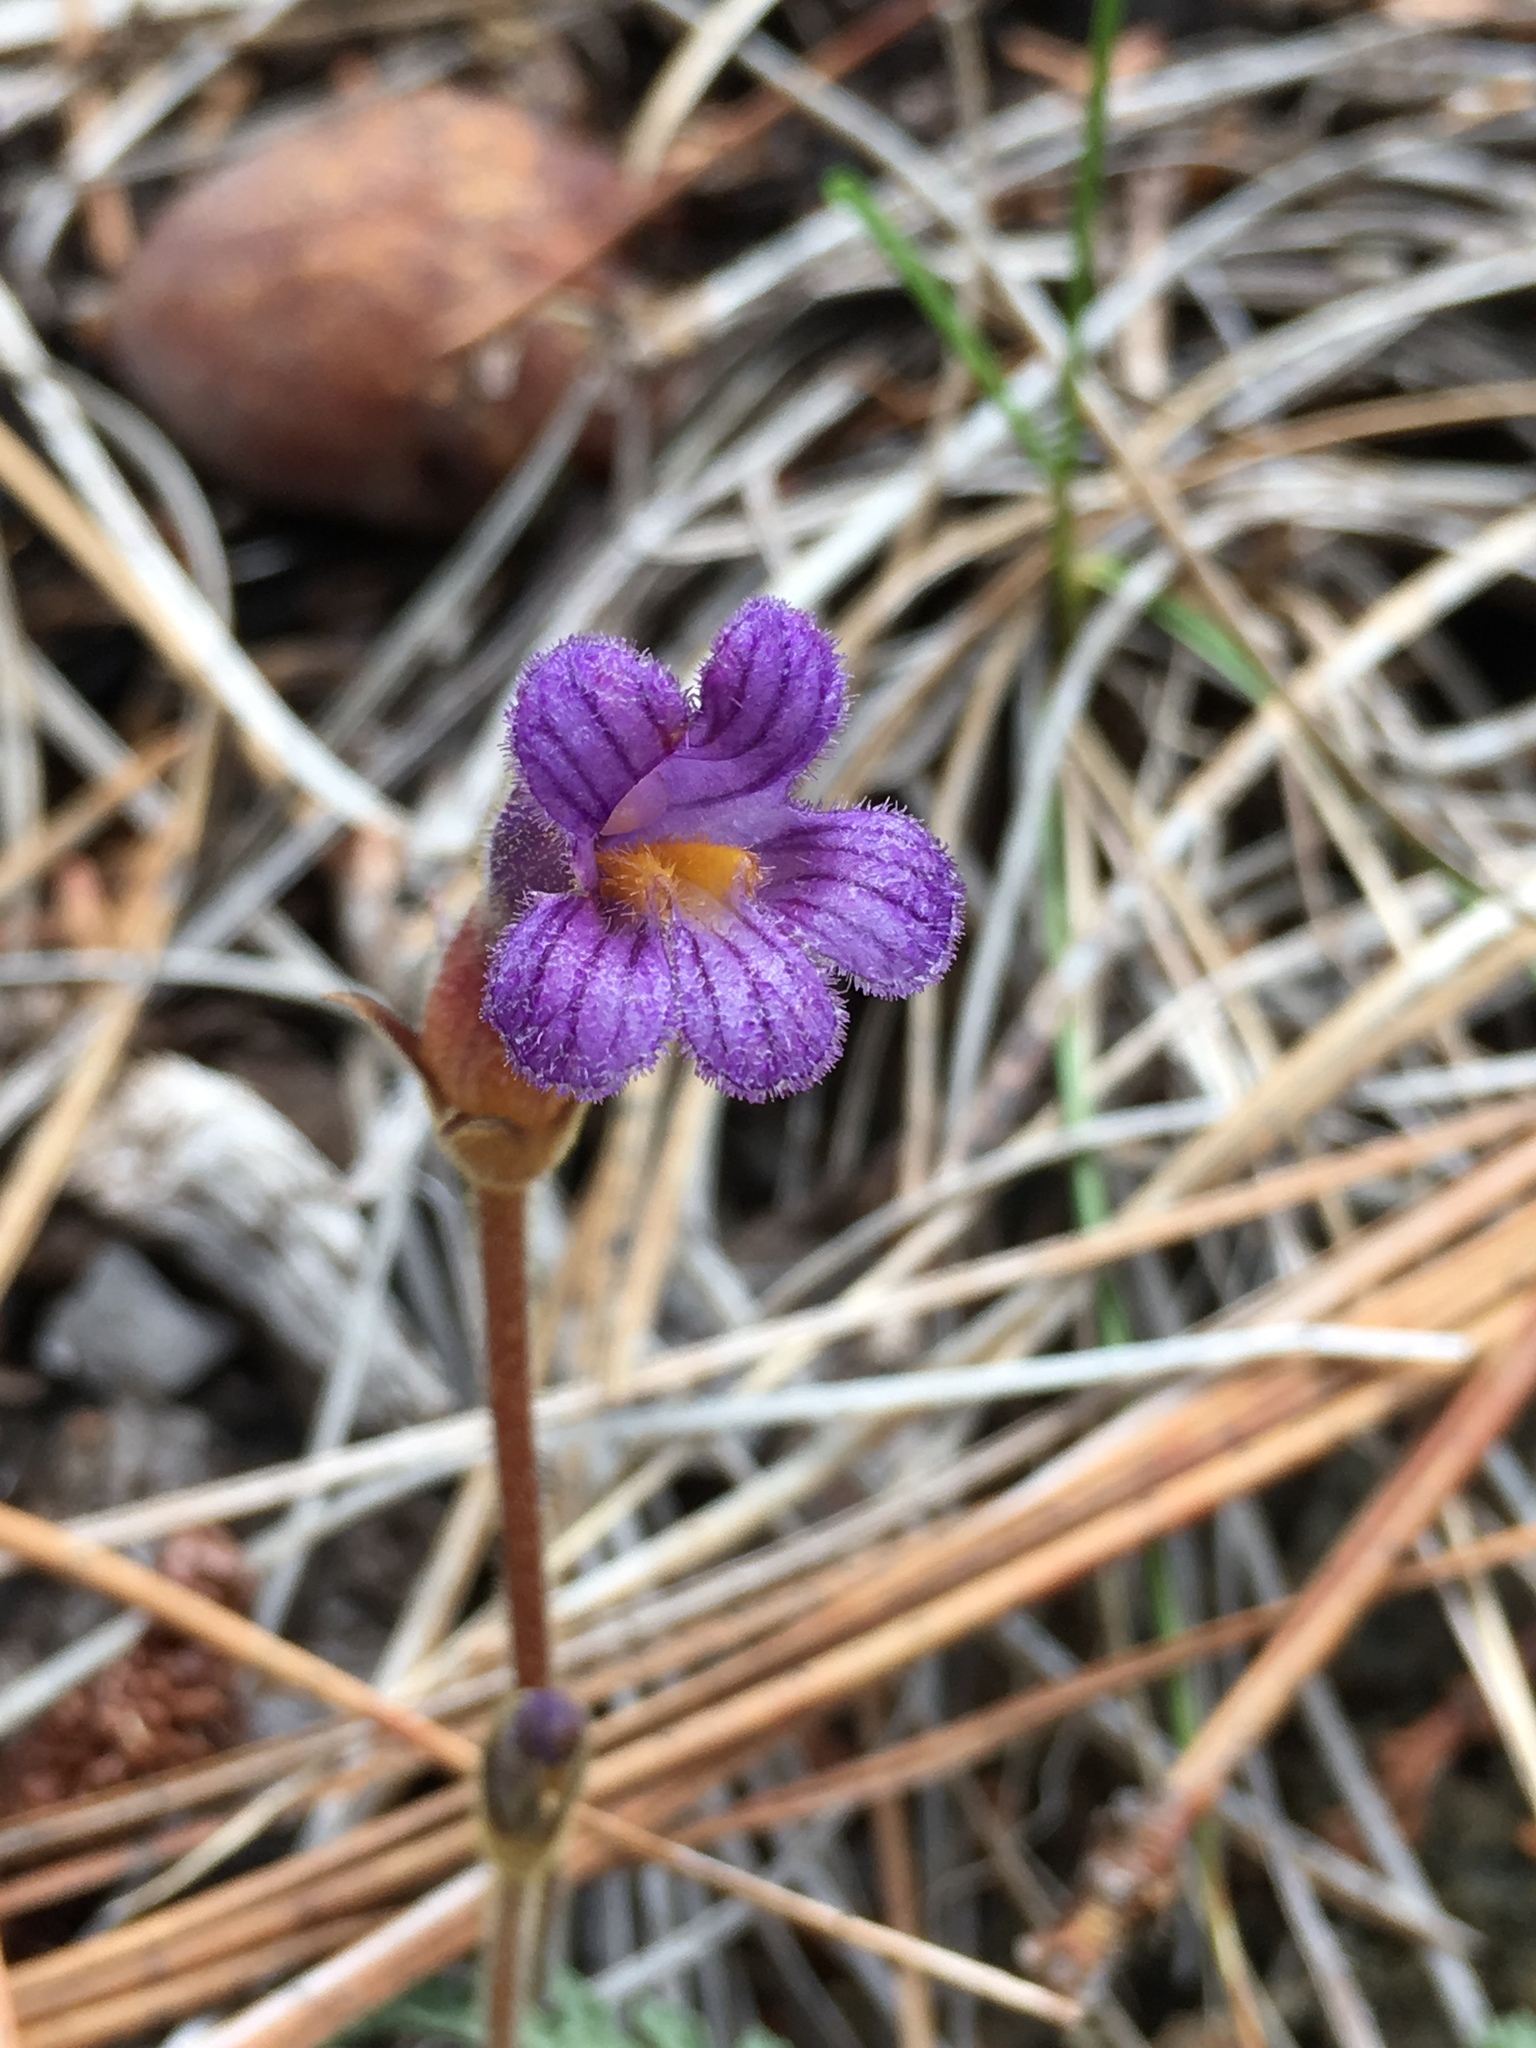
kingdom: Plantae
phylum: Tracheophyta
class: Magnoliopsida
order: Lamiales
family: Orobanchaceae
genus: Aphyllon
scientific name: Aphyllon uniflorum
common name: One-flowered broomrape
